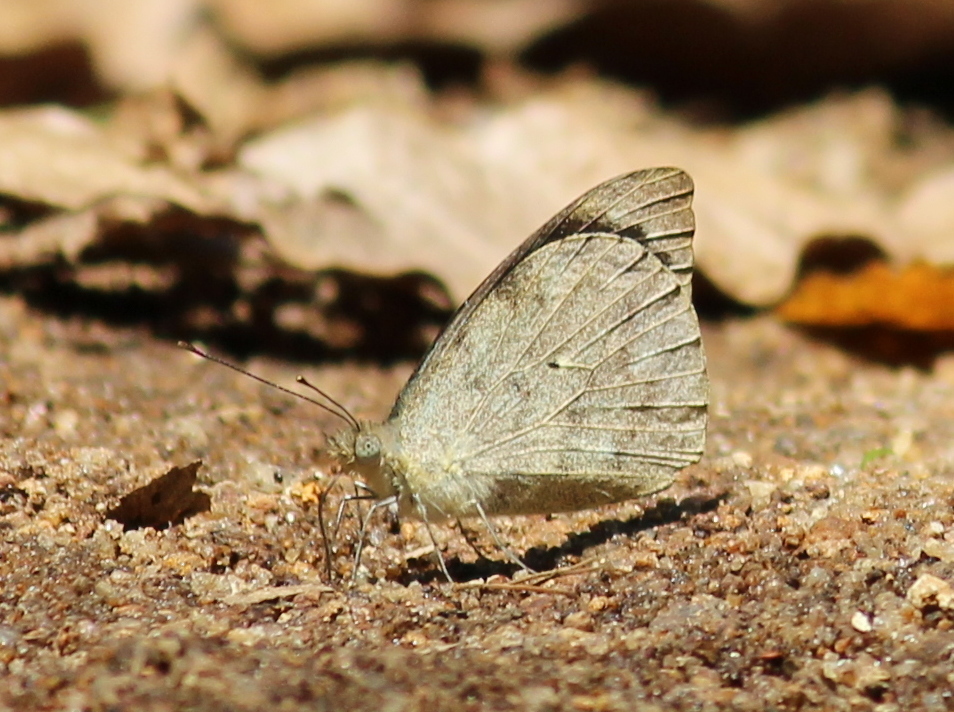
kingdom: Animalia
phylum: Arthropoda
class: Insecta
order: Lepidoptera
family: Pieridae
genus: Appias
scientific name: Appias indra
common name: Plain puffin
